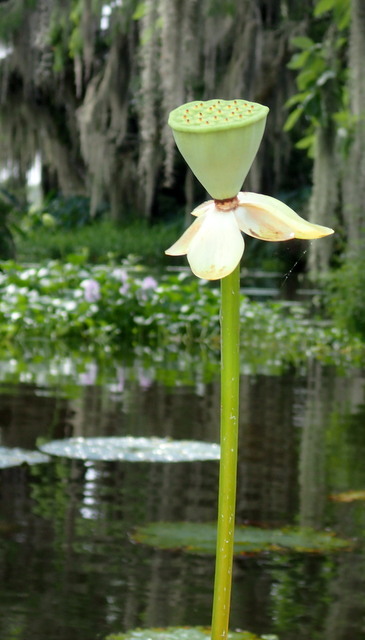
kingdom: Plantae
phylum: Tracheophyta
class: Magnoliopsida
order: Proteales
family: Nelumbonaceae
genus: Nelumbo
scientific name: Nelumbo lutea
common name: American lotus
